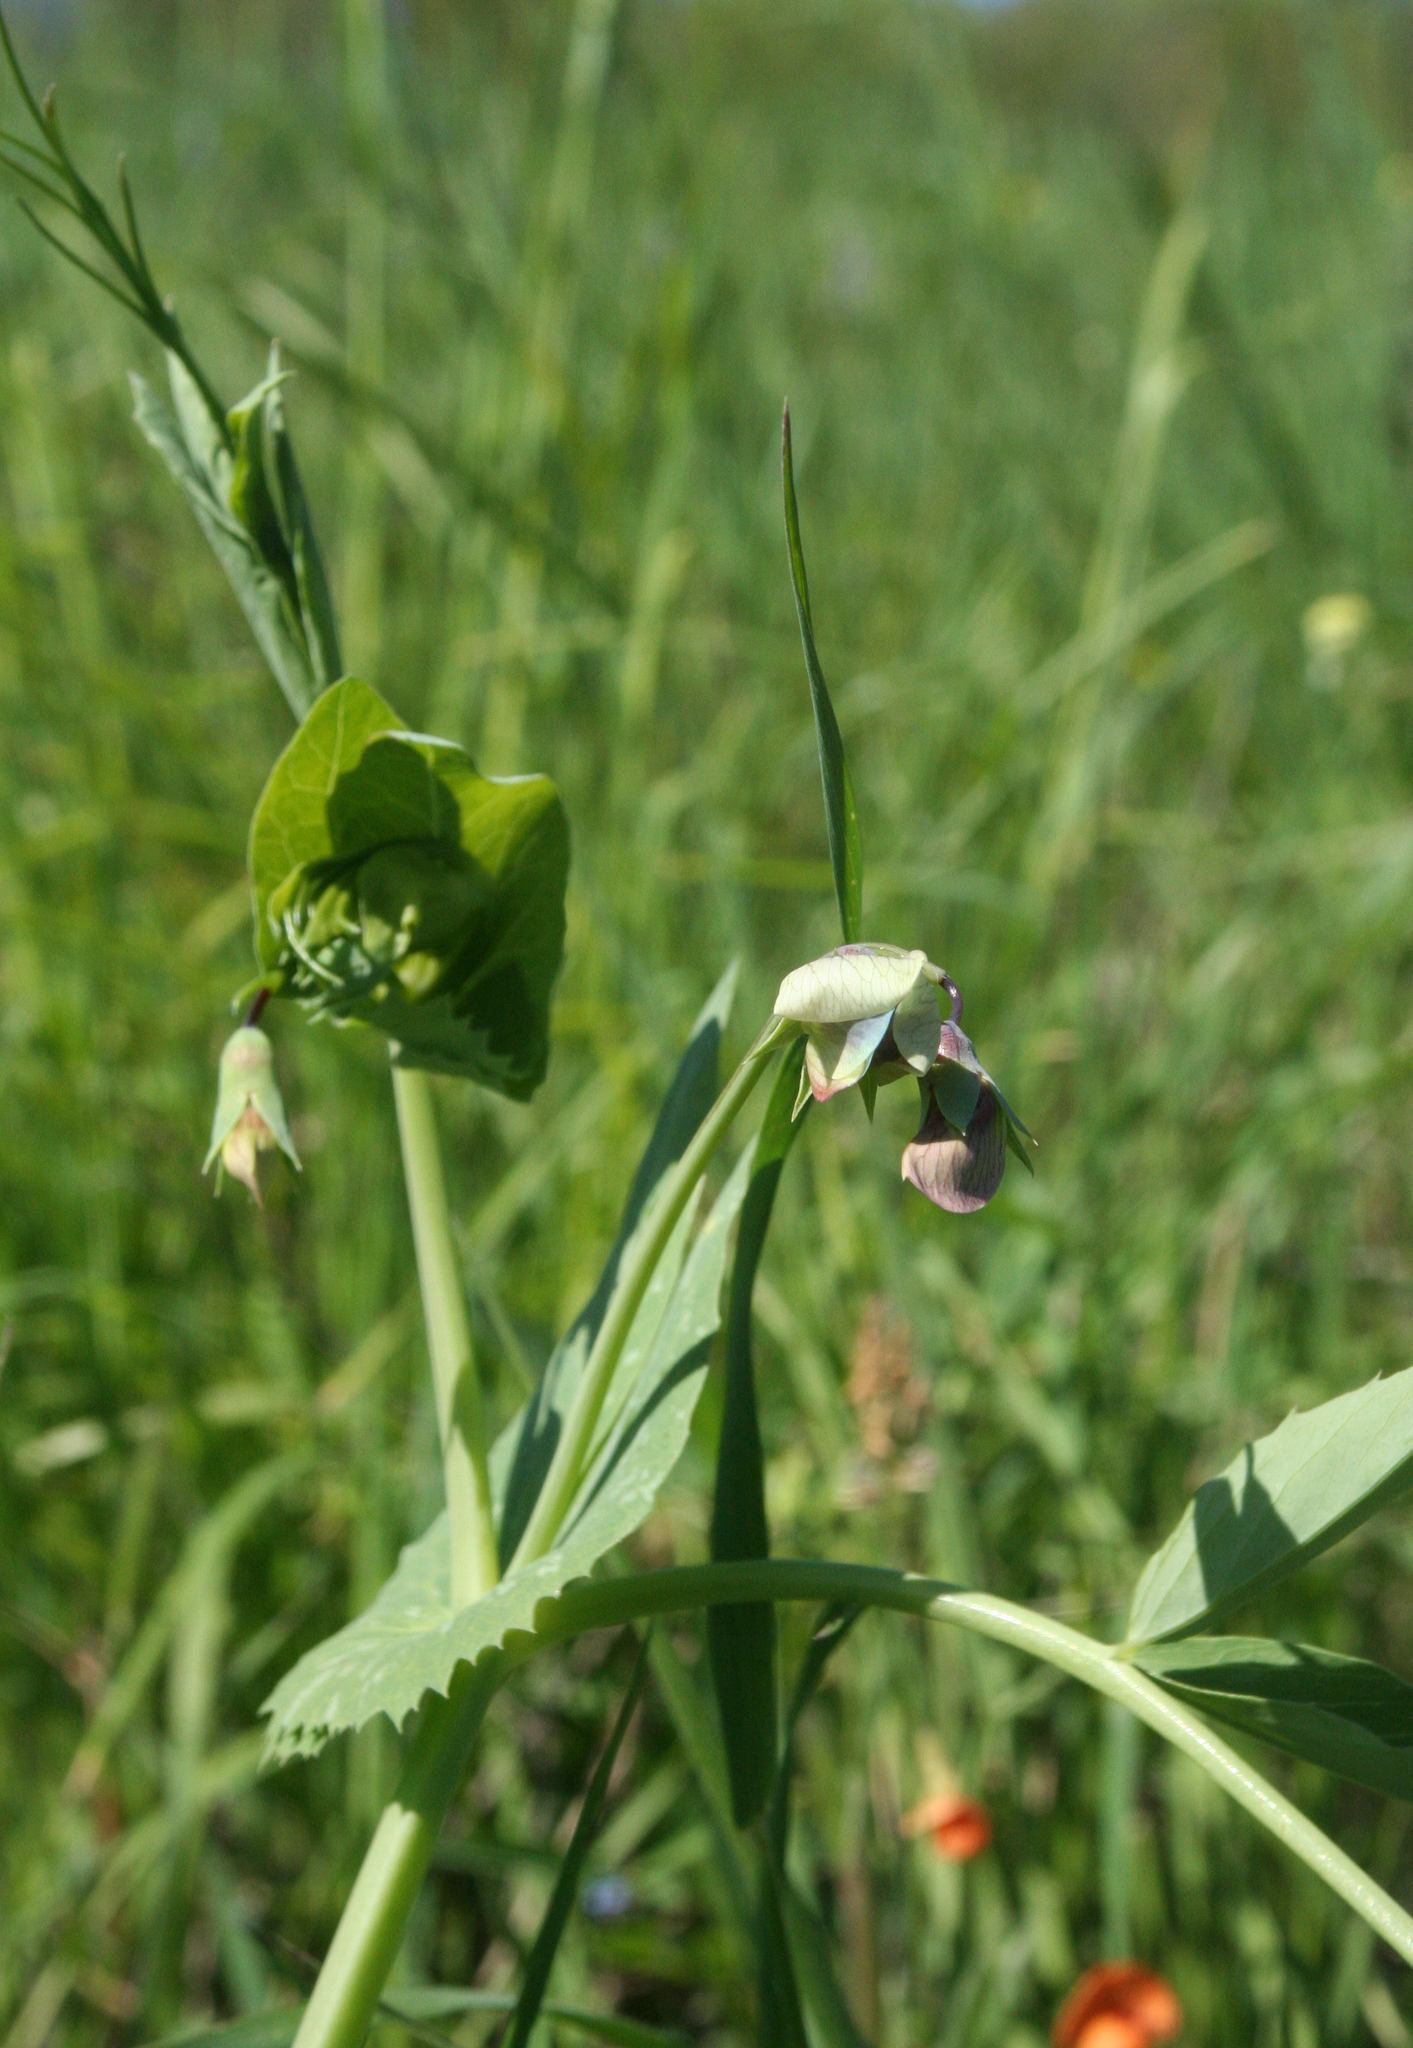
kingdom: Plantae
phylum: Tracheophyta
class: Magnoliopsida
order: Fabales
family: Fabaceae
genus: Lathyrus
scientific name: Lathyrus oleraceus
